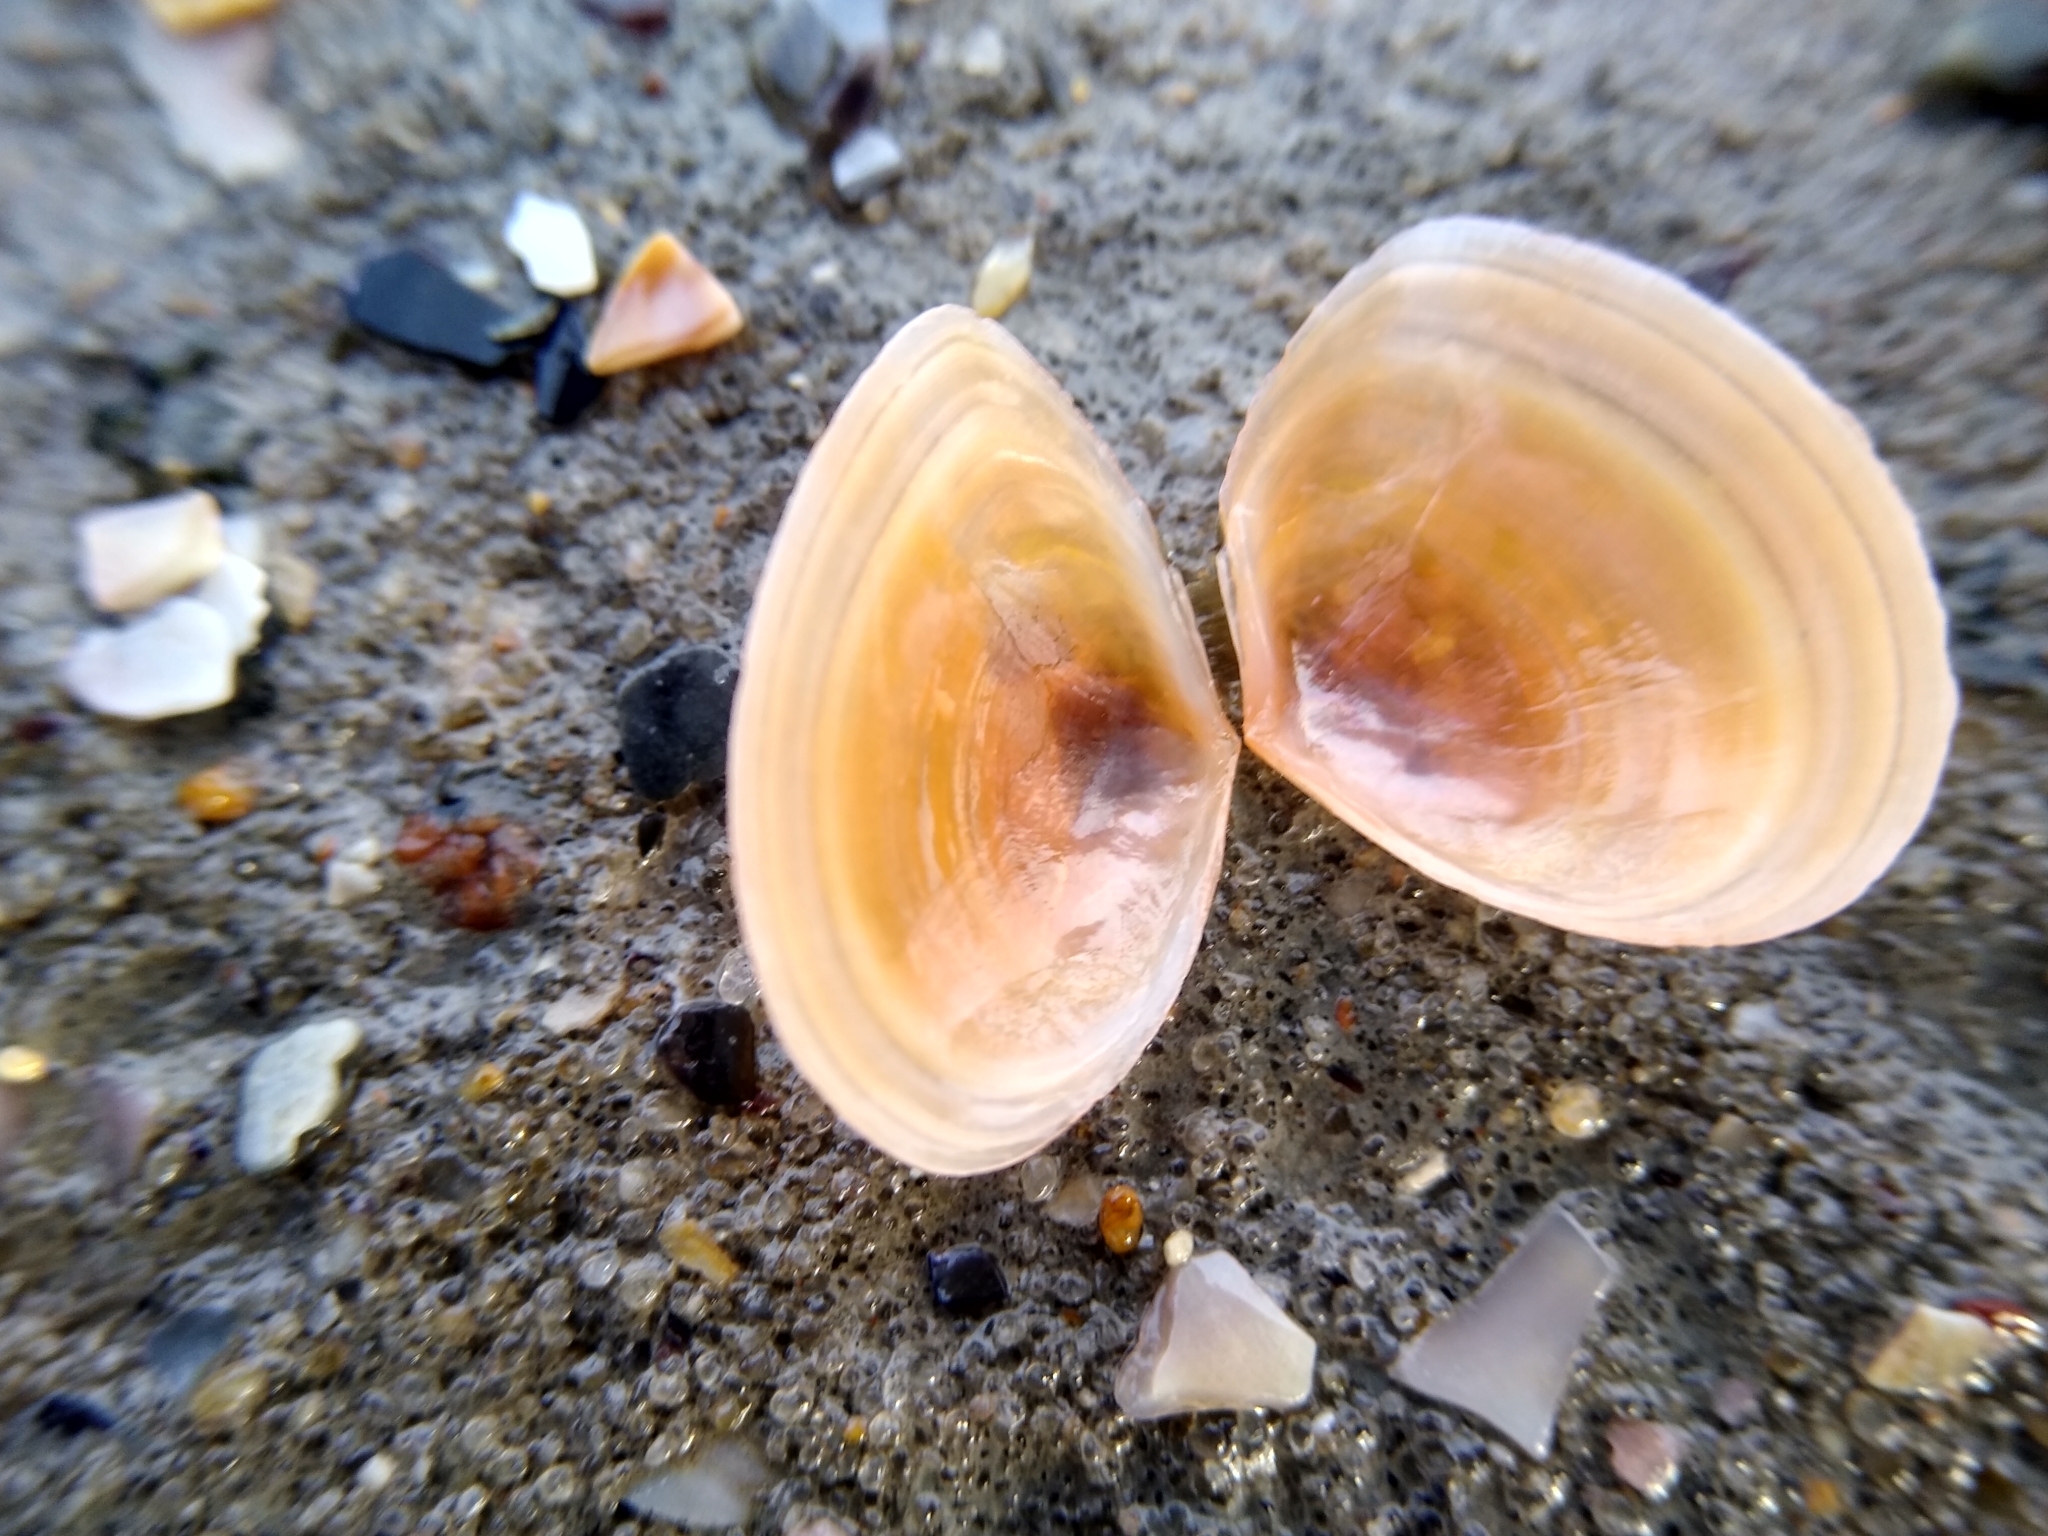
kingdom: Animalia
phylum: Mollusca
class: Bivalvia
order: Cardiida
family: Tellinidae
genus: Macomangulus
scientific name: Macomangulus tenuis
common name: Thin tellin
